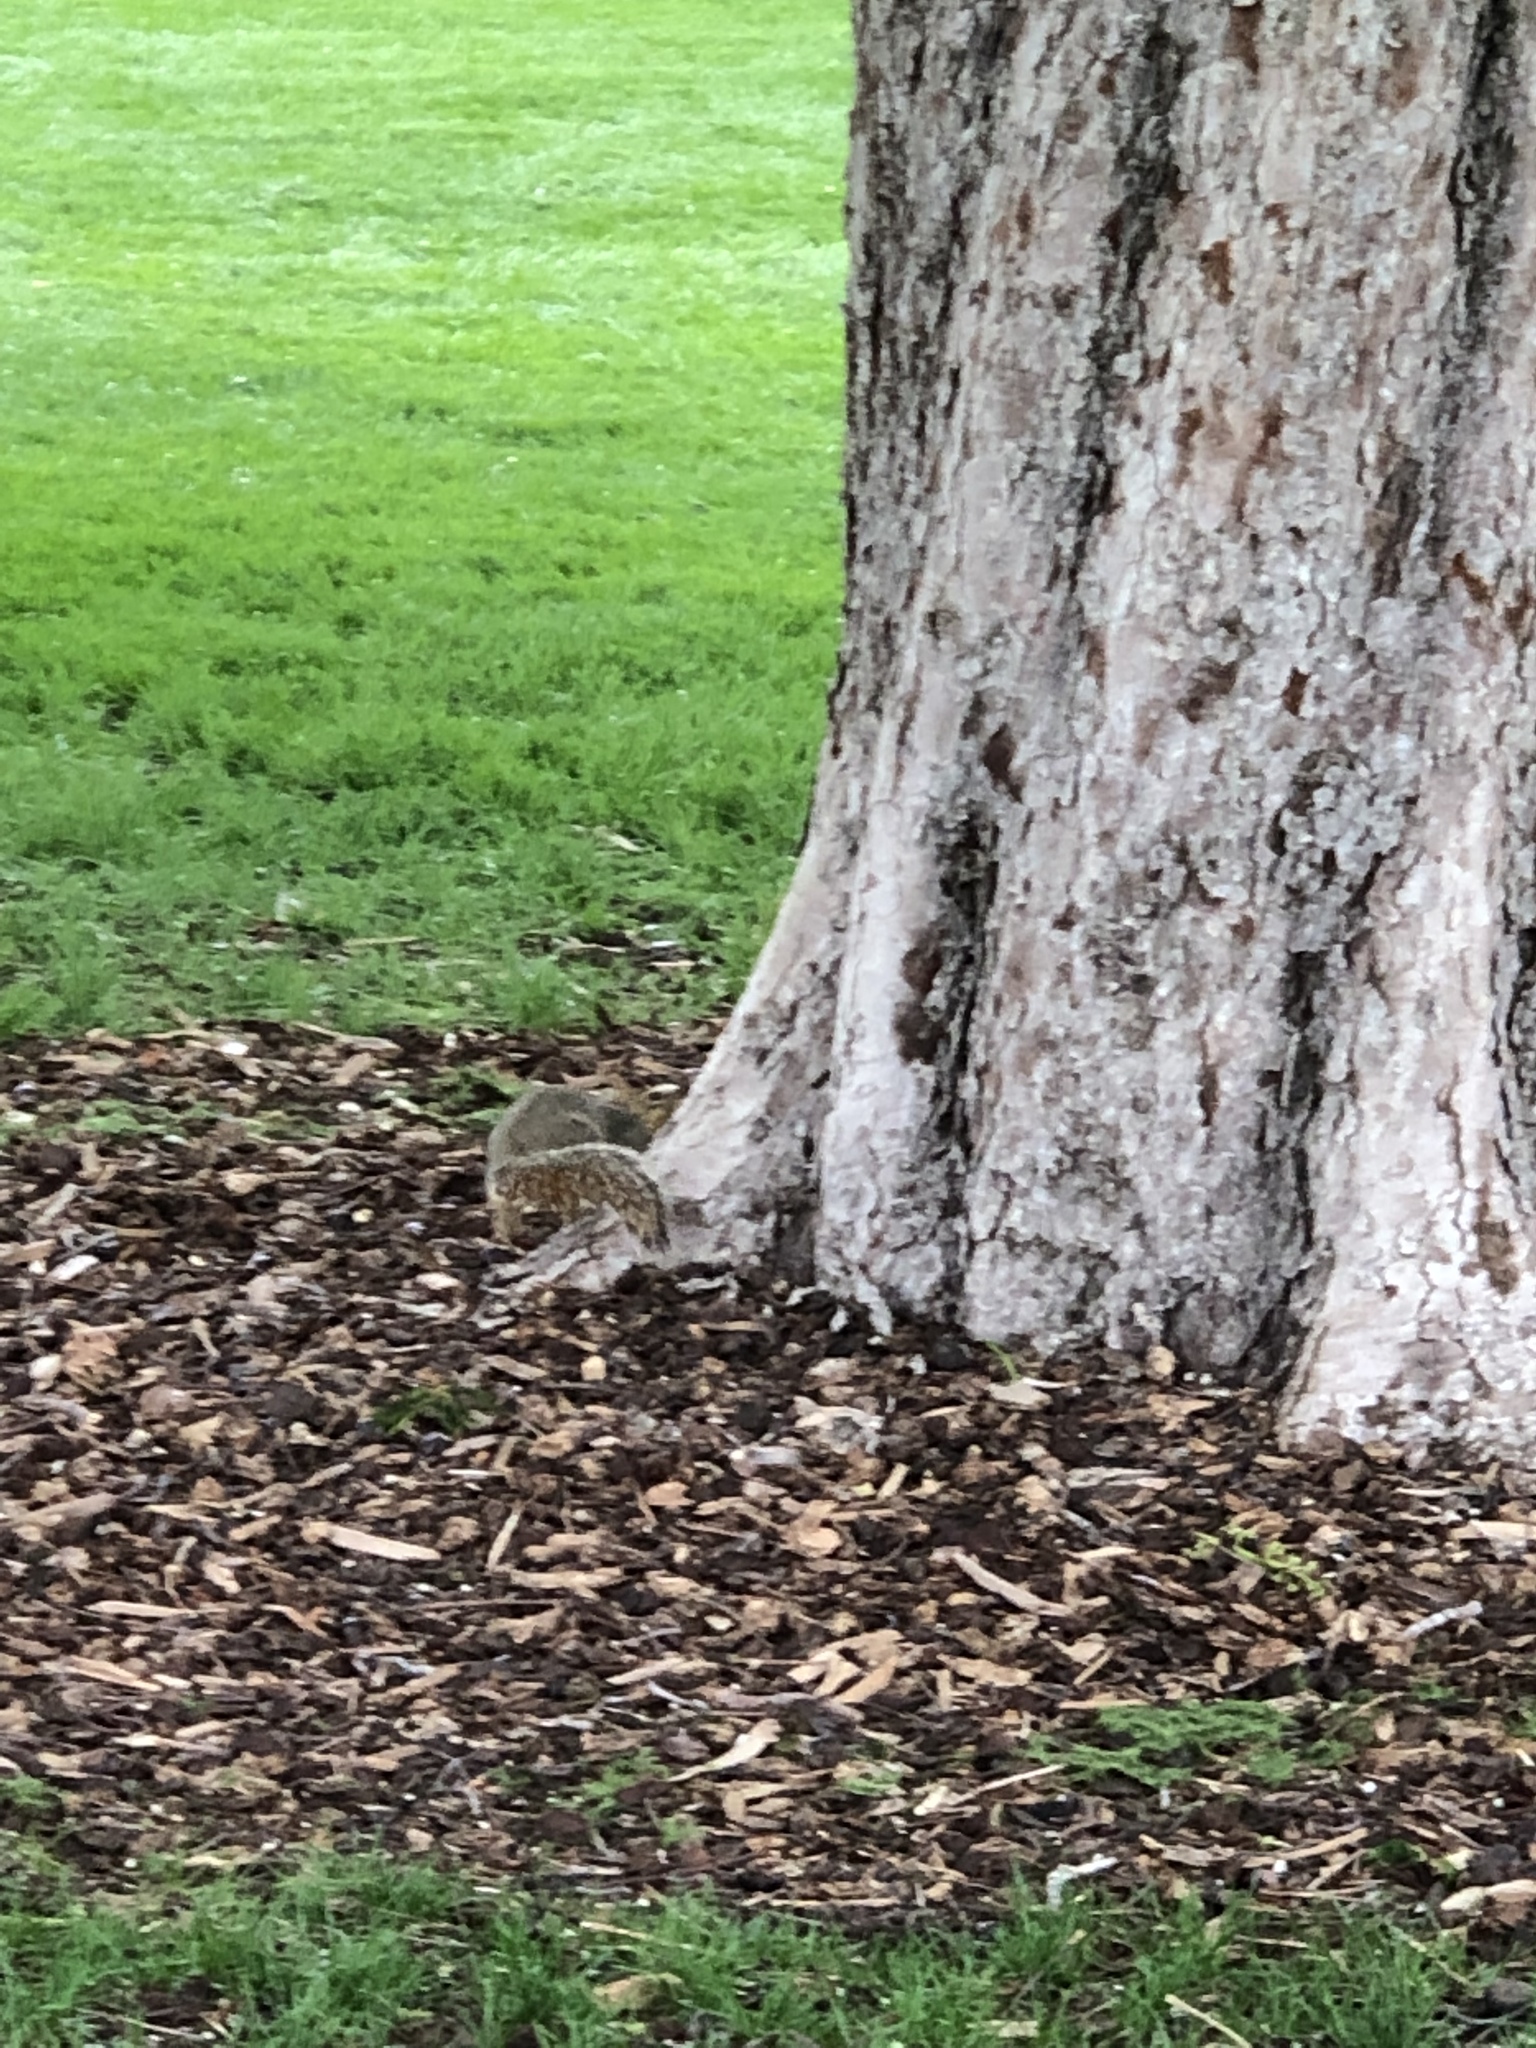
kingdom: Animalia
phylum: Chordata
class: Mammalia
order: Rodentia
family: Sciuridae
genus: Sciurus
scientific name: Sciurus niger
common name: Fox squirrel
